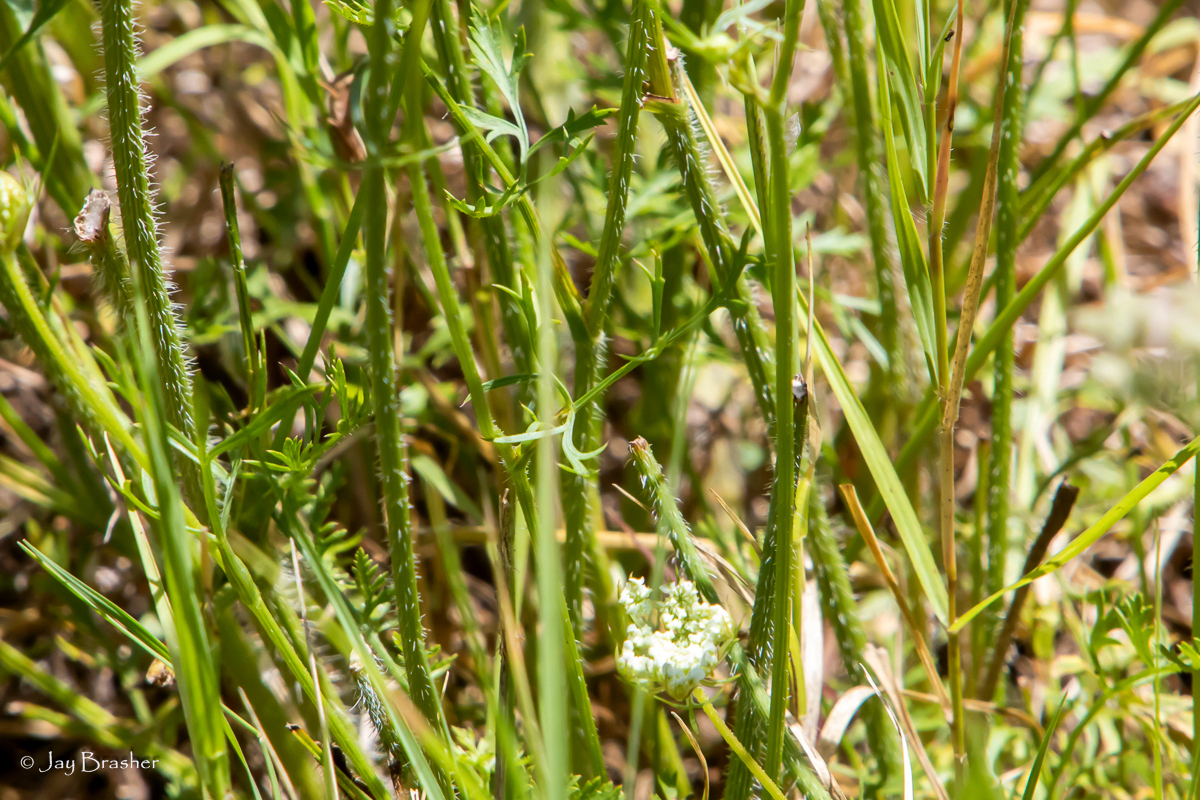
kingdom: Plantae
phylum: Tracheophyta
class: Magnoliopsida
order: Apiales
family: Apiaceae
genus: Daucus
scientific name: Daucus carota
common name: Wild carrot
